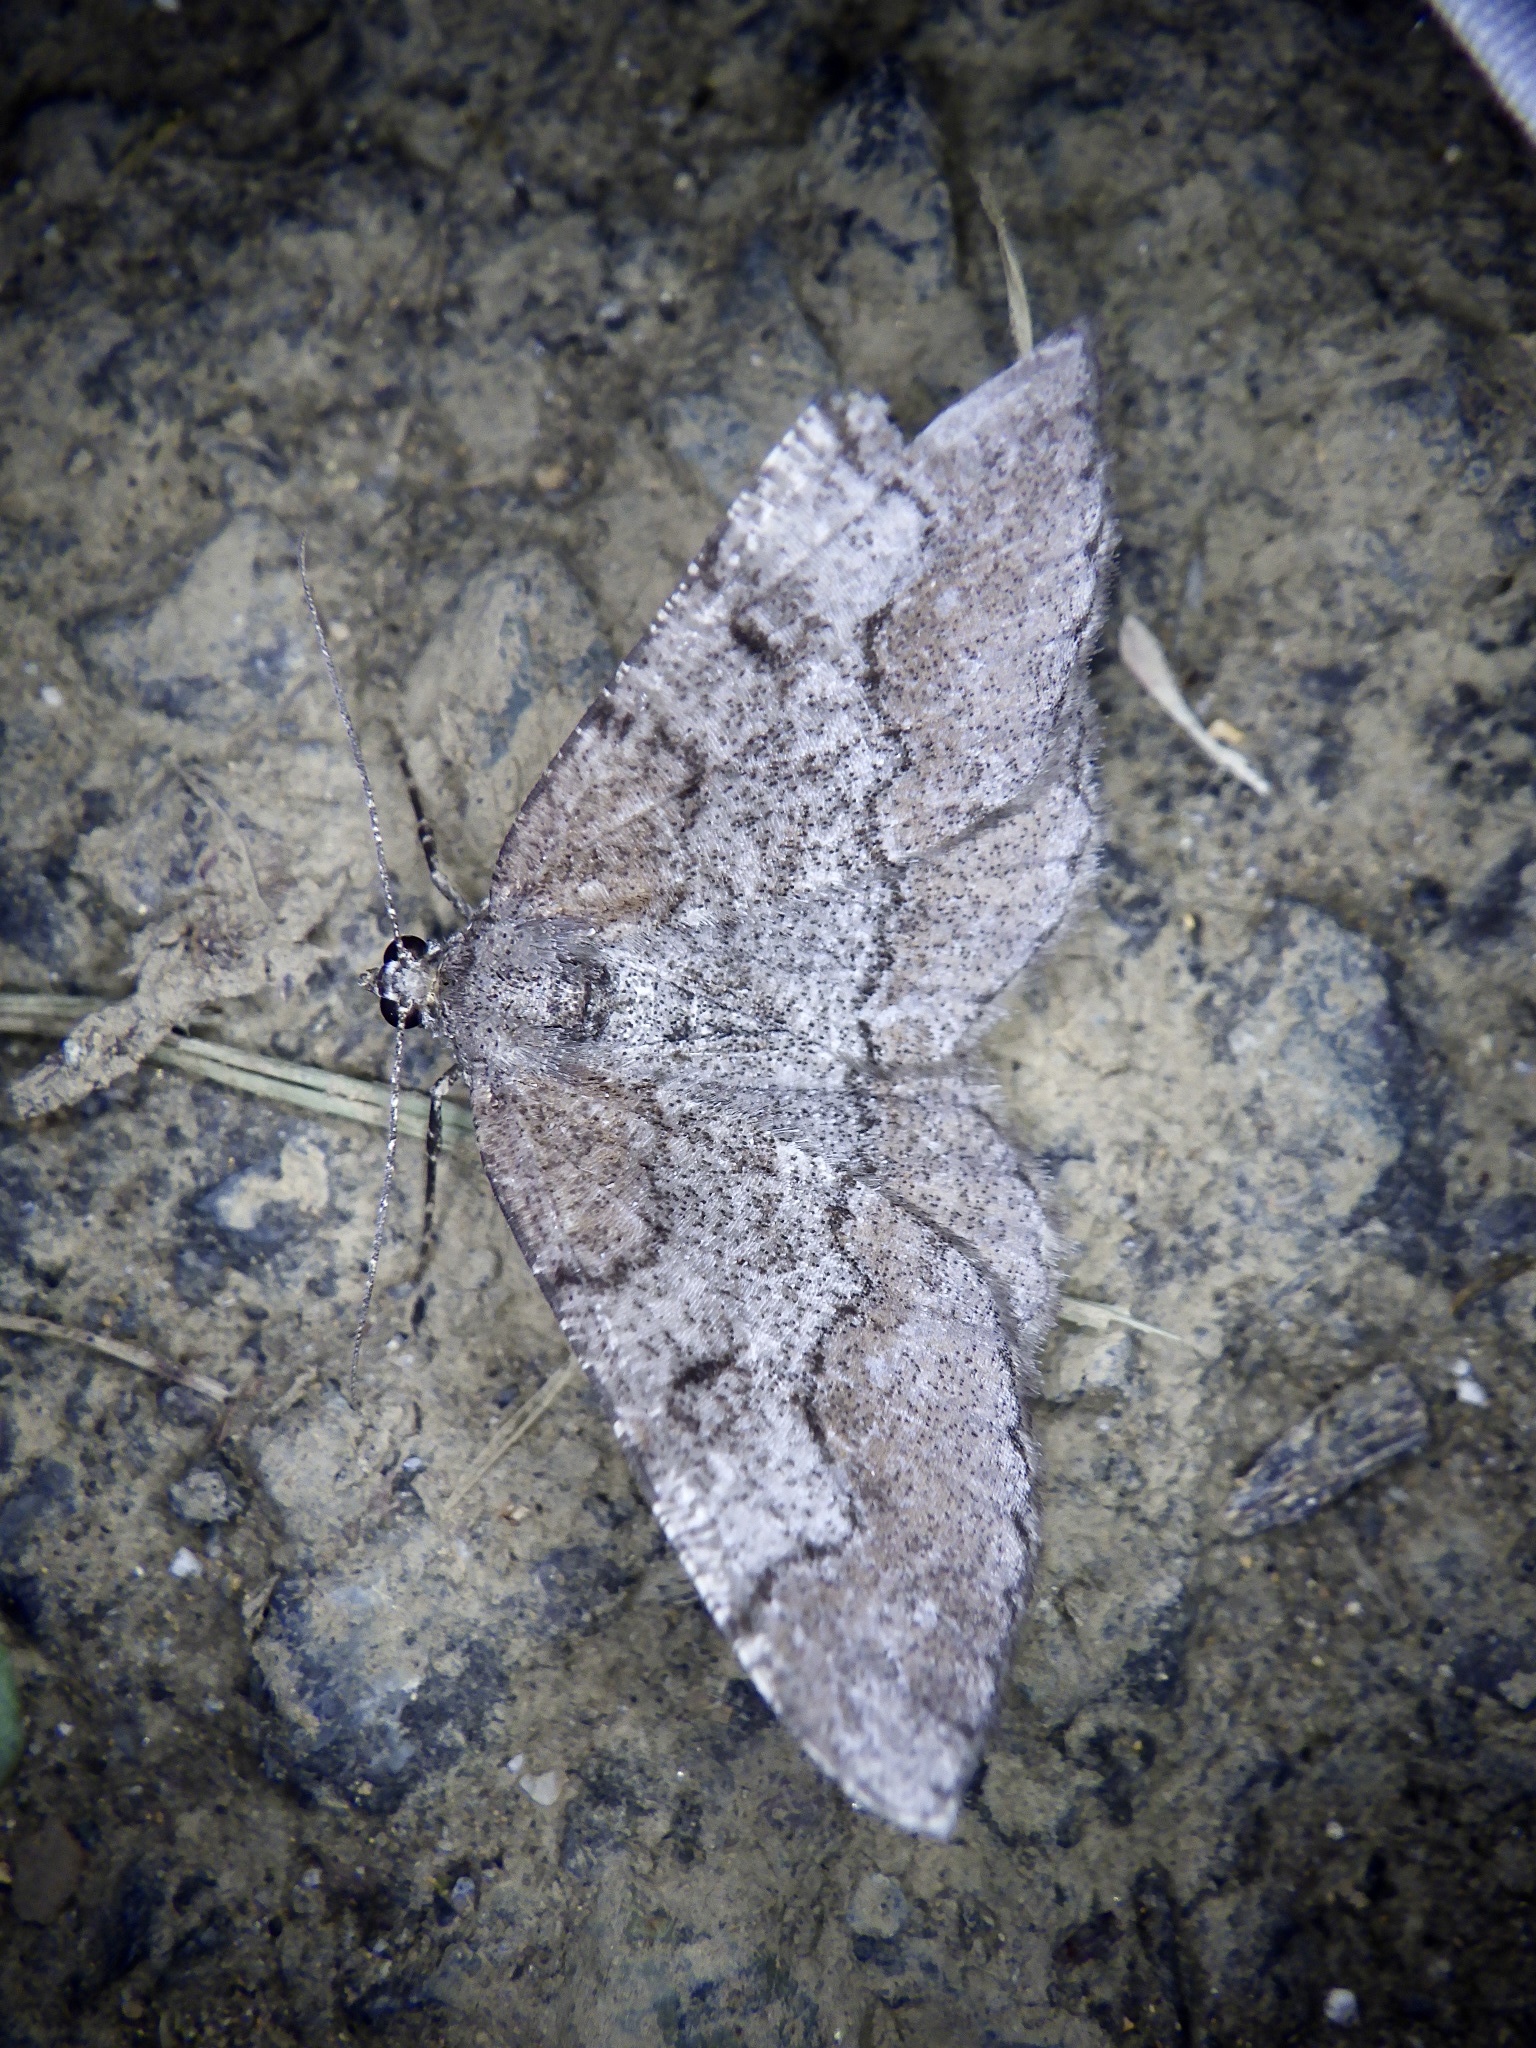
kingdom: Animalia
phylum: Arthropoda
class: Insecta
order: Lepidoptera
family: Geometridae
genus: Rikiosatoa
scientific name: Rikiosatoa grisea
